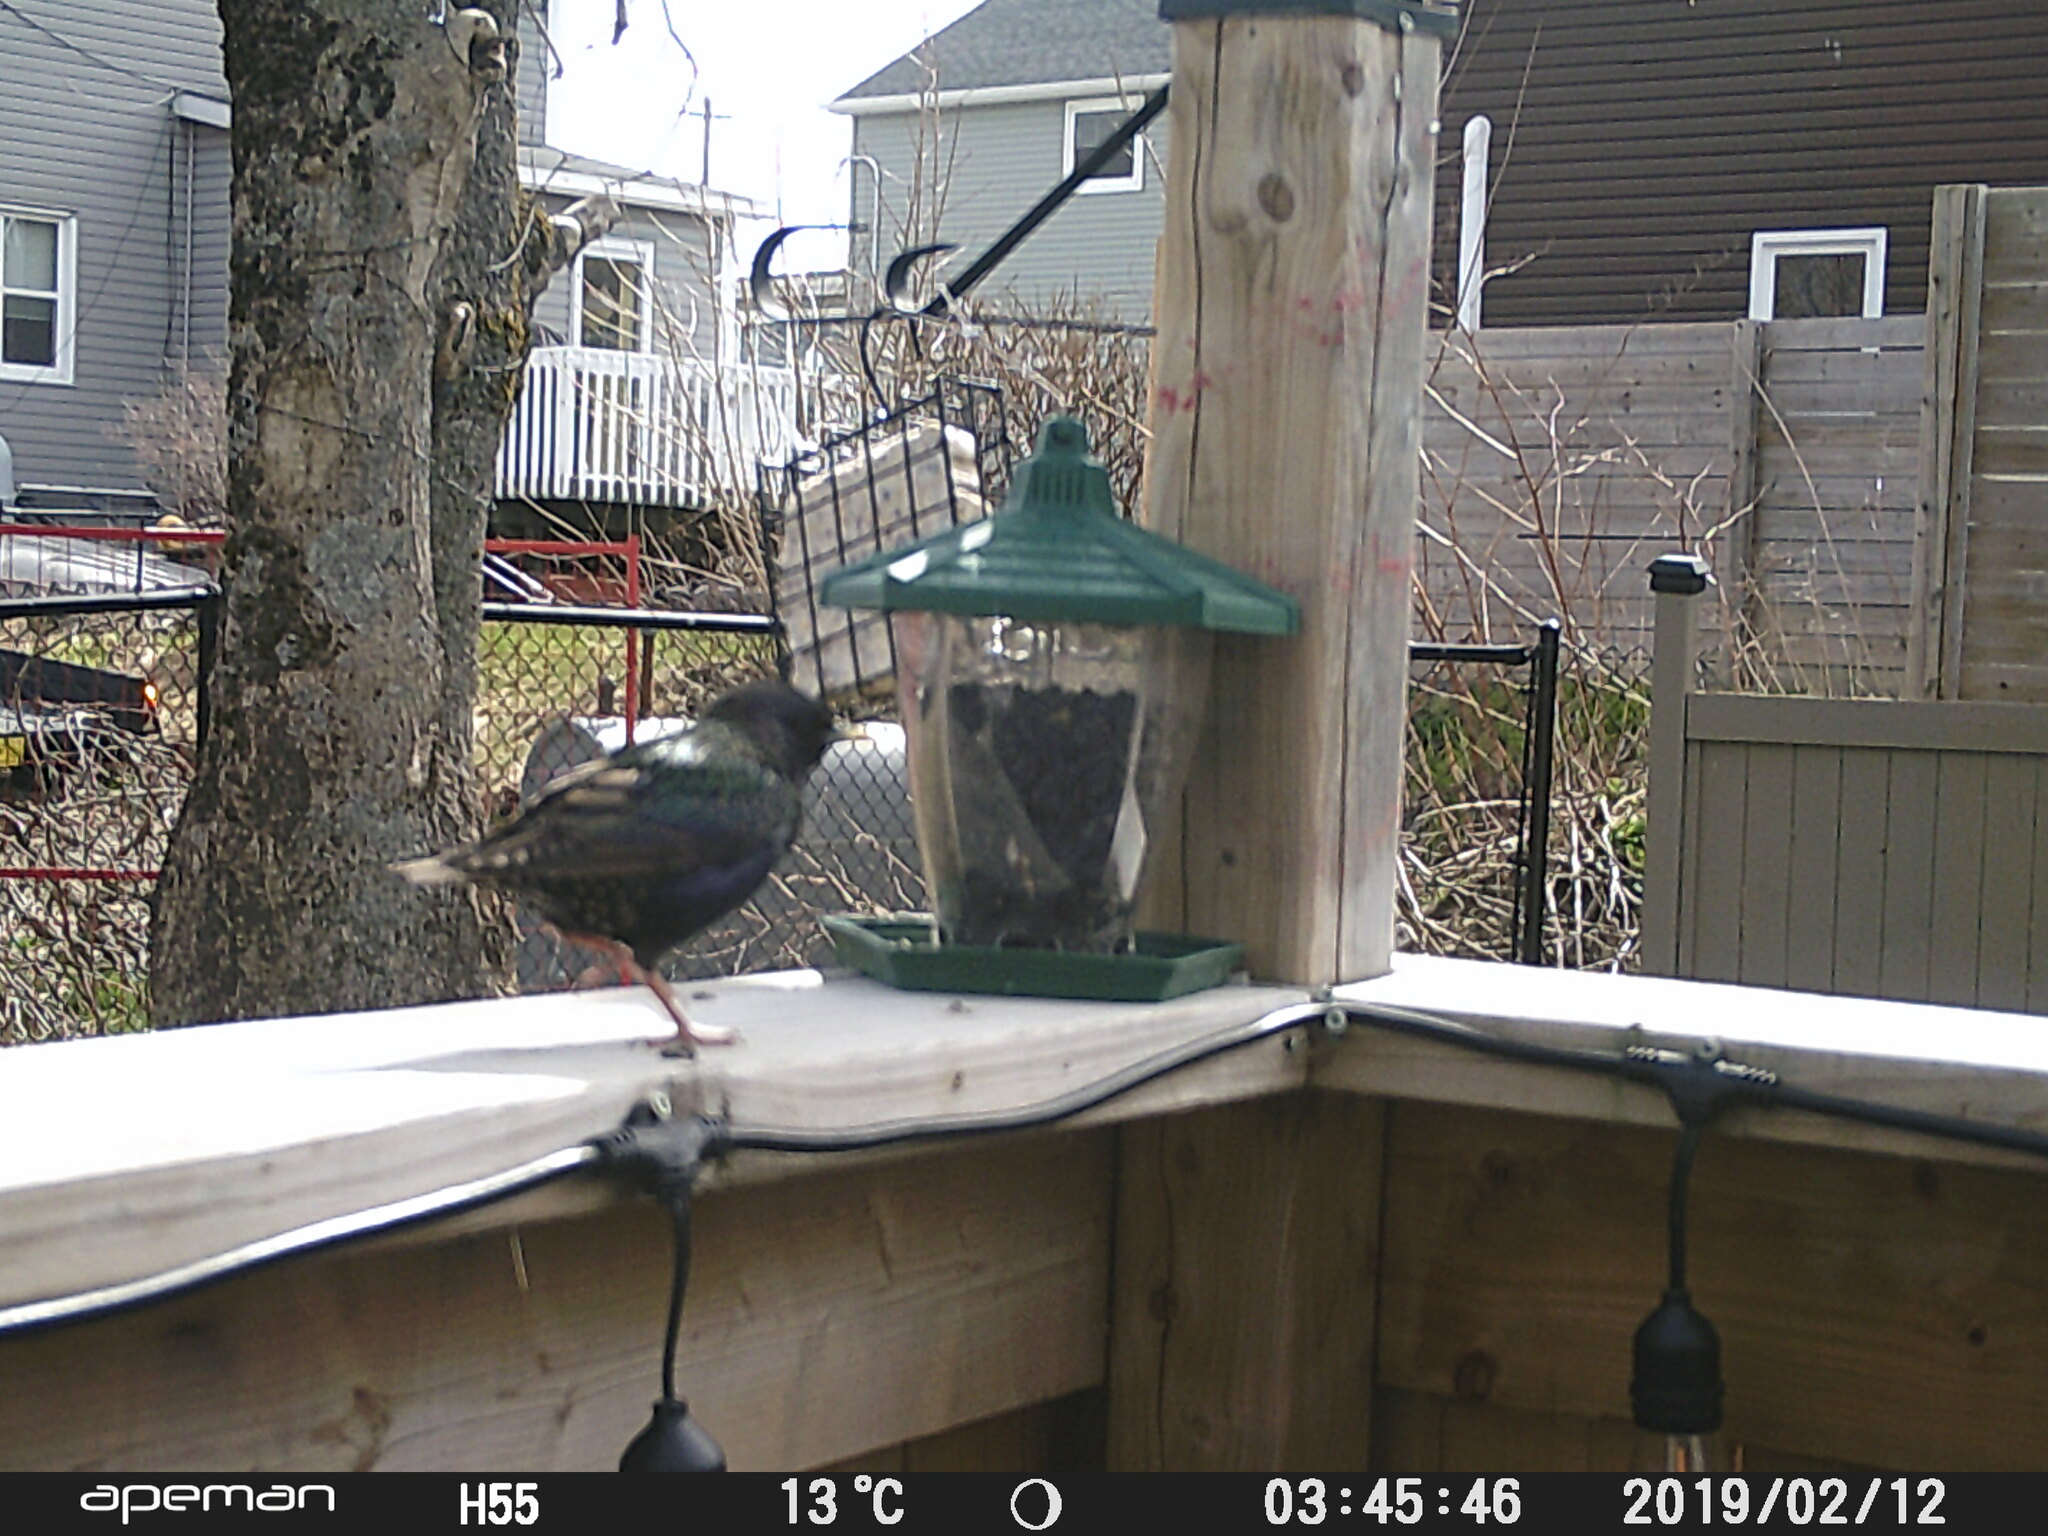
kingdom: Animalia
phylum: Chordata
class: Aves
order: Passeriformes
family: Sturnidae
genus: Sturnus
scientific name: Sturnus vulgaris
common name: Common starling
